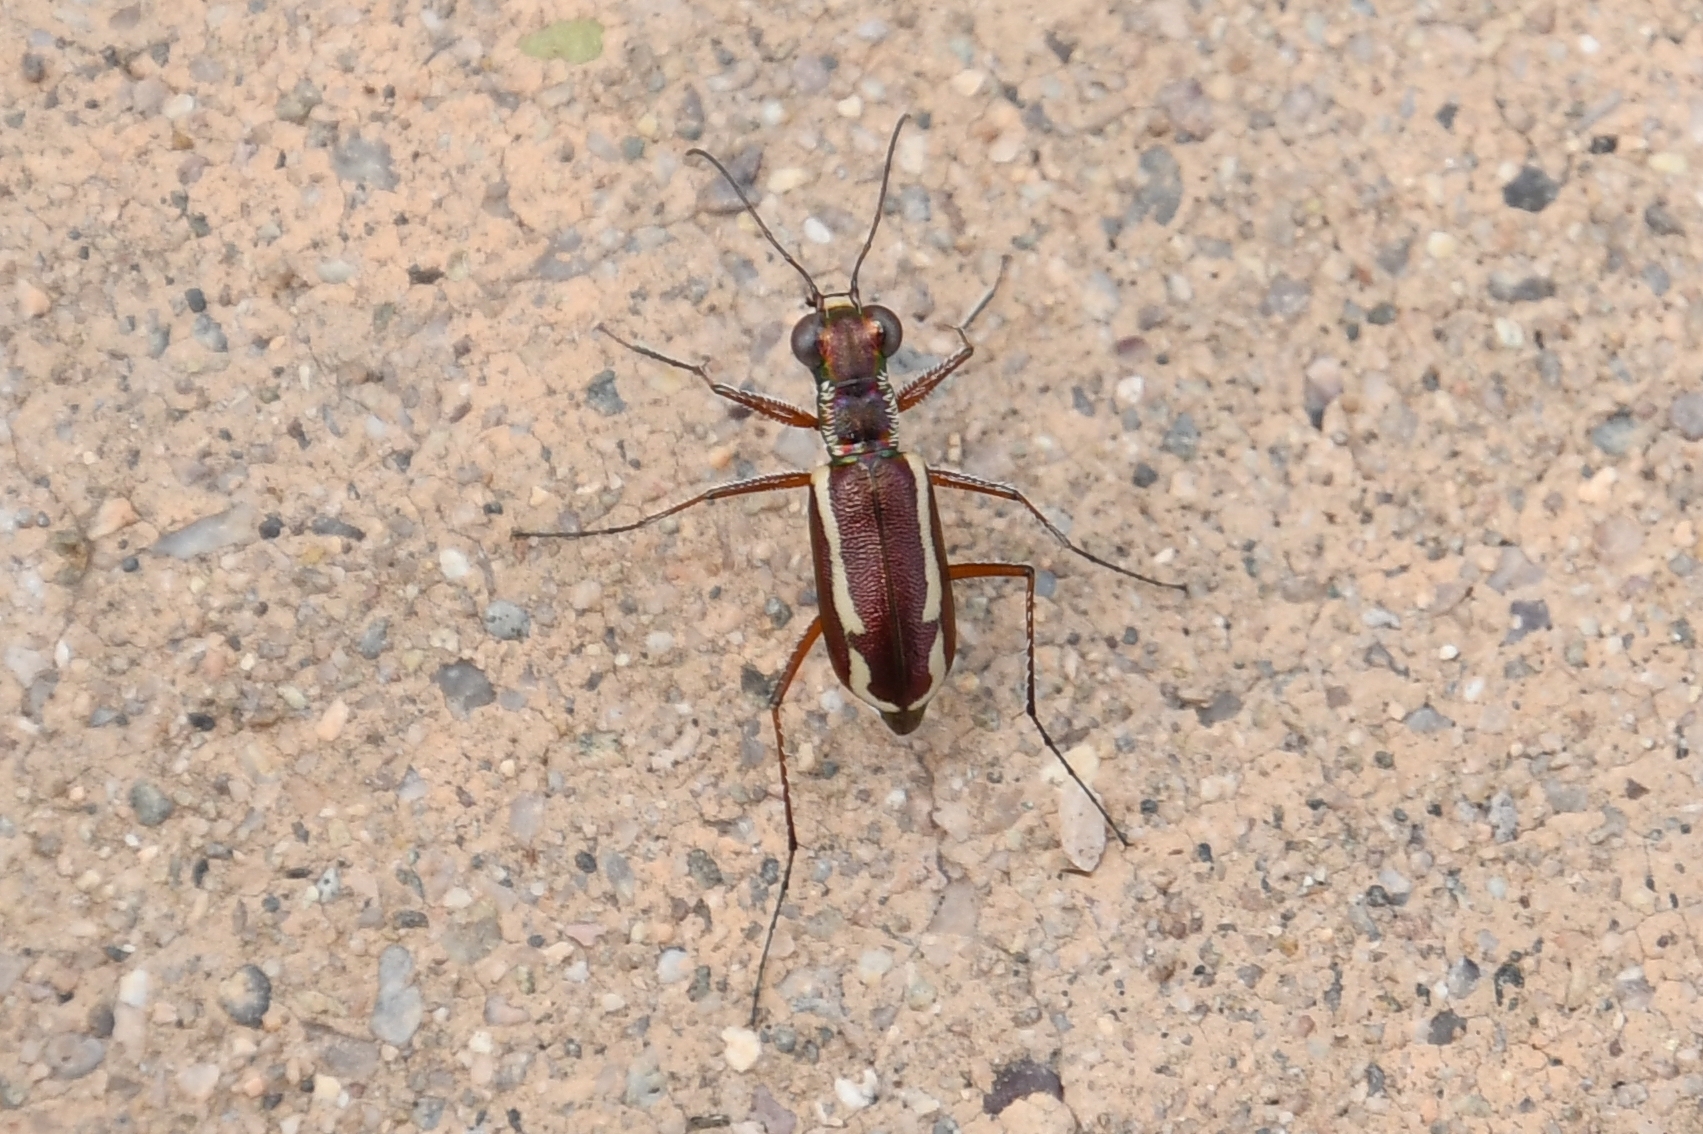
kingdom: Animalia
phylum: Arthropoda
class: Insecta
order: Coleoptera
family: Carabidae
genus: Cylindera
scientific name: Cylindera lemniscata
